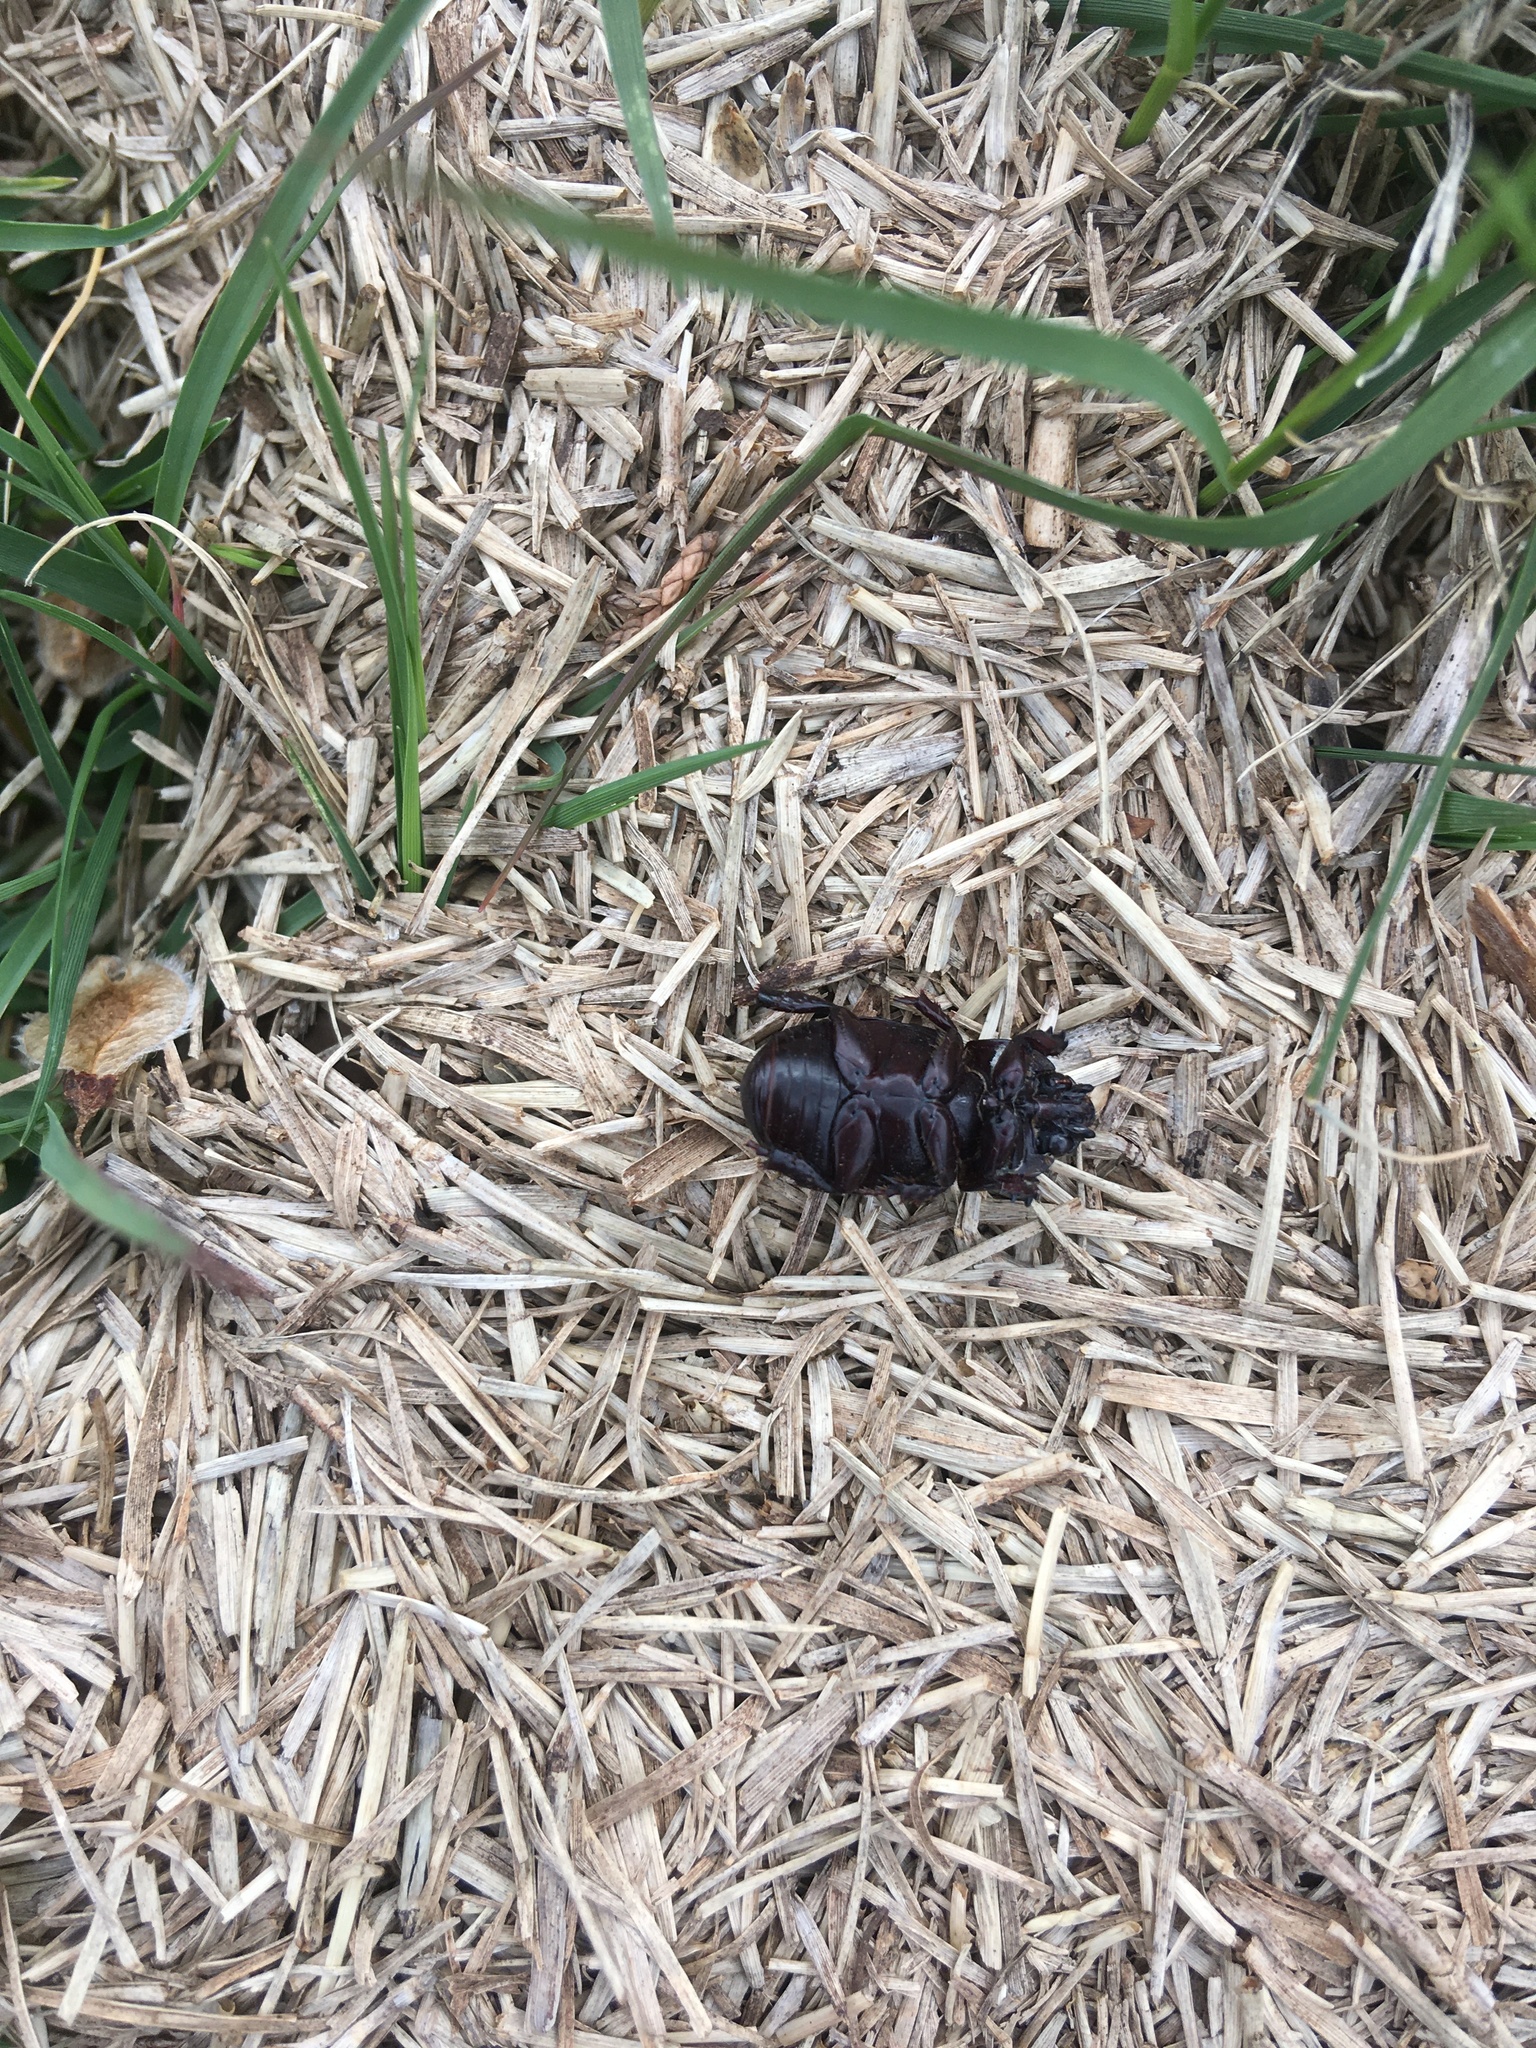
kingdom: Animalia
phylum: Arthropoda
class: Insecta
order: Coleoptera
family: Scarabaeidae
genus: Euetheola
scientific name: Euetheola humilis
